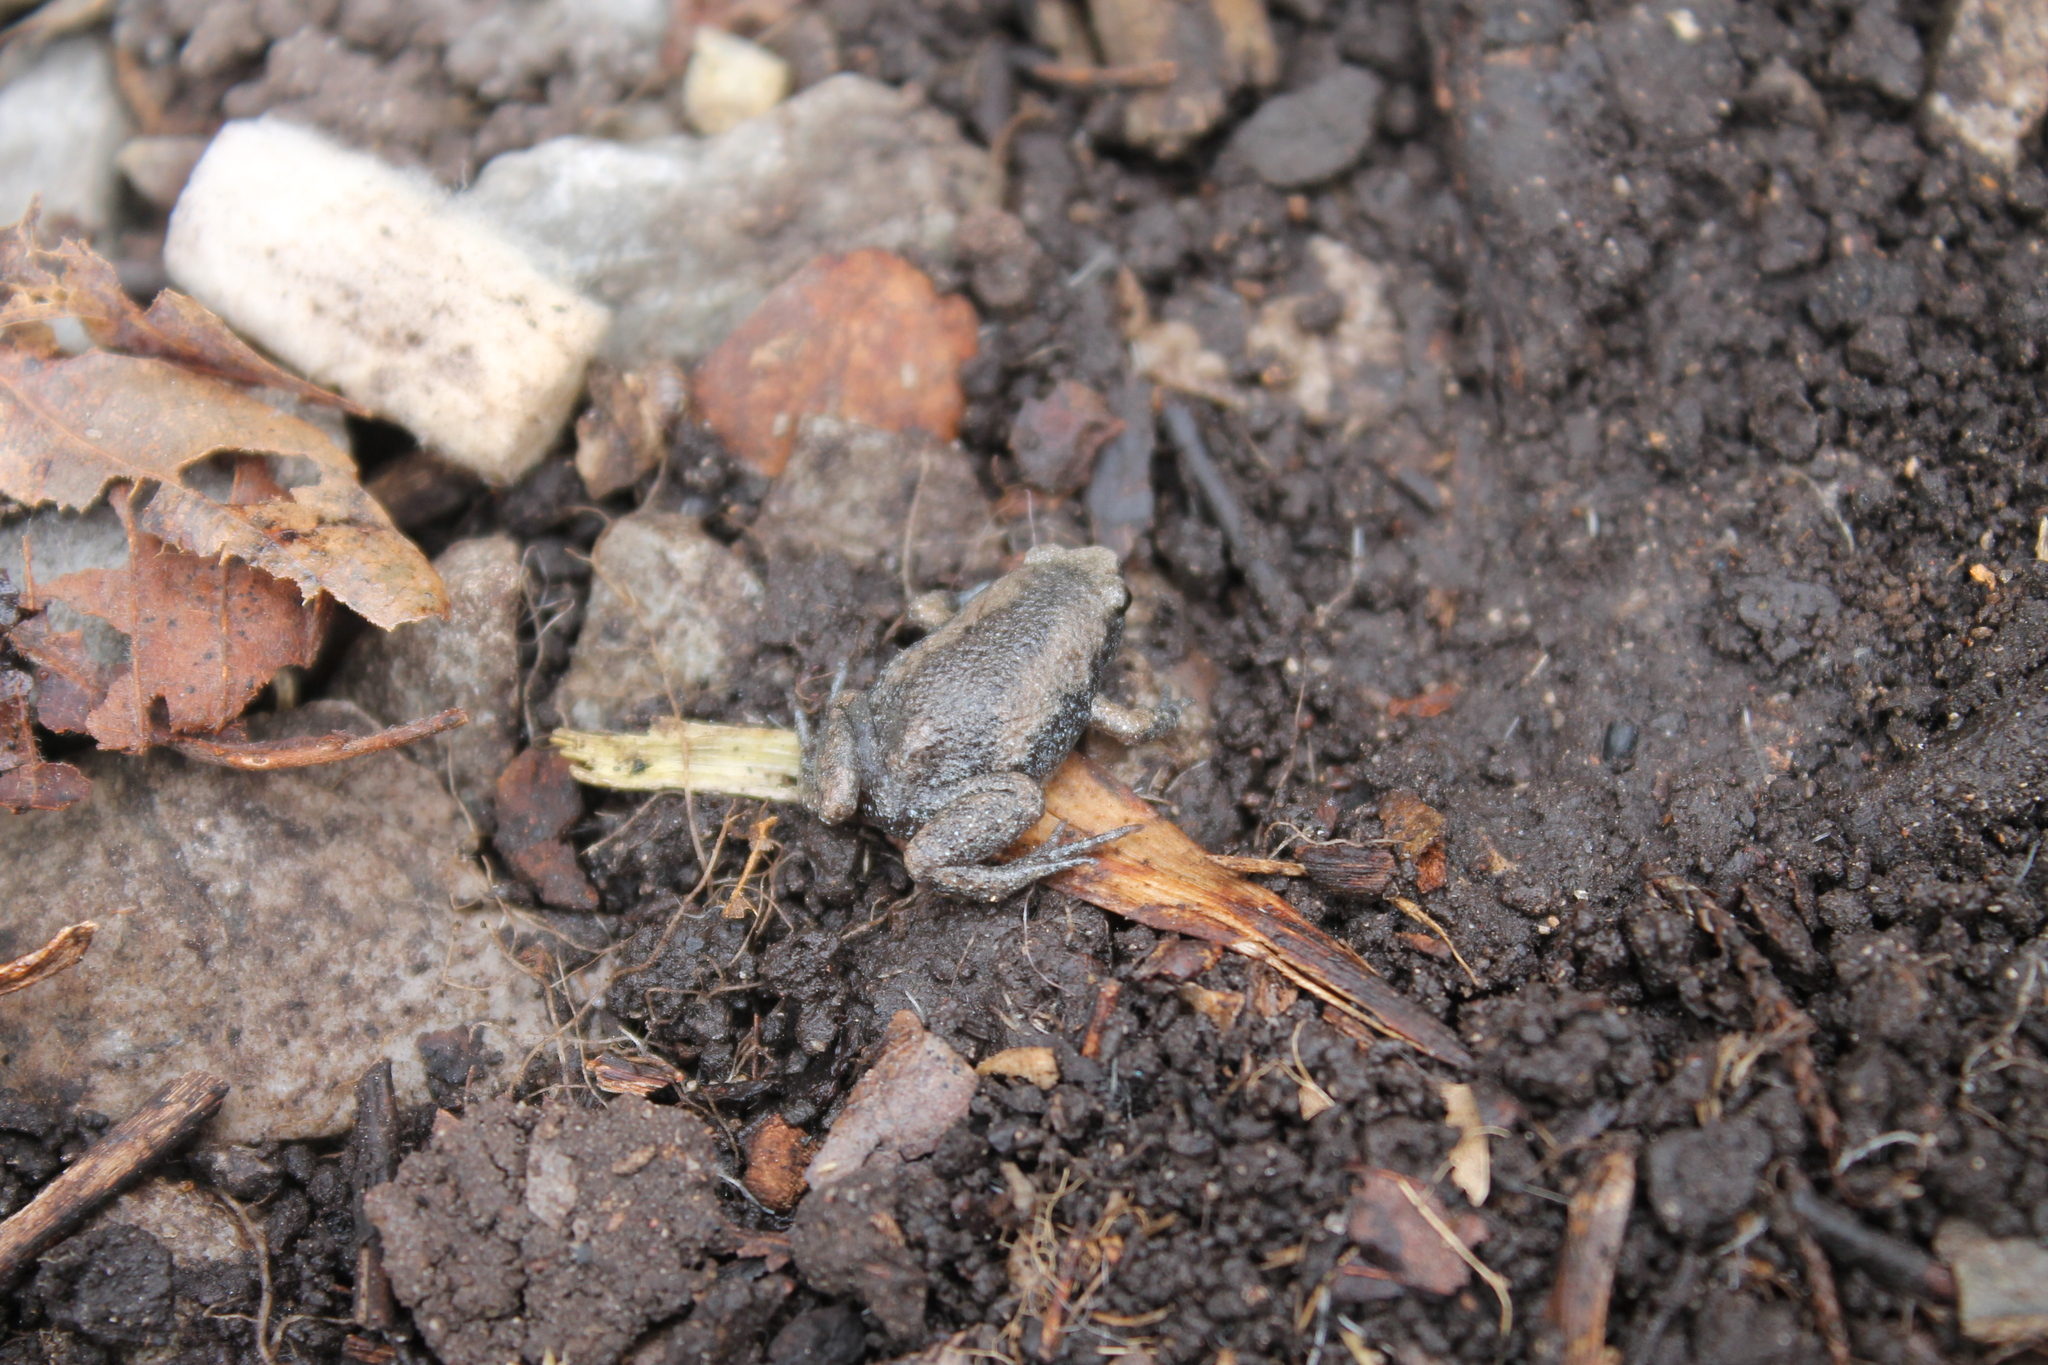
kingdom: Animalia
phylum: Chordata
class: Amphibia
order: Anura
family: Microhylidae
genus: Gastrophryne
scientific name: Gastrophryne carolinensis
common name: Eastern narrowmouth toad
